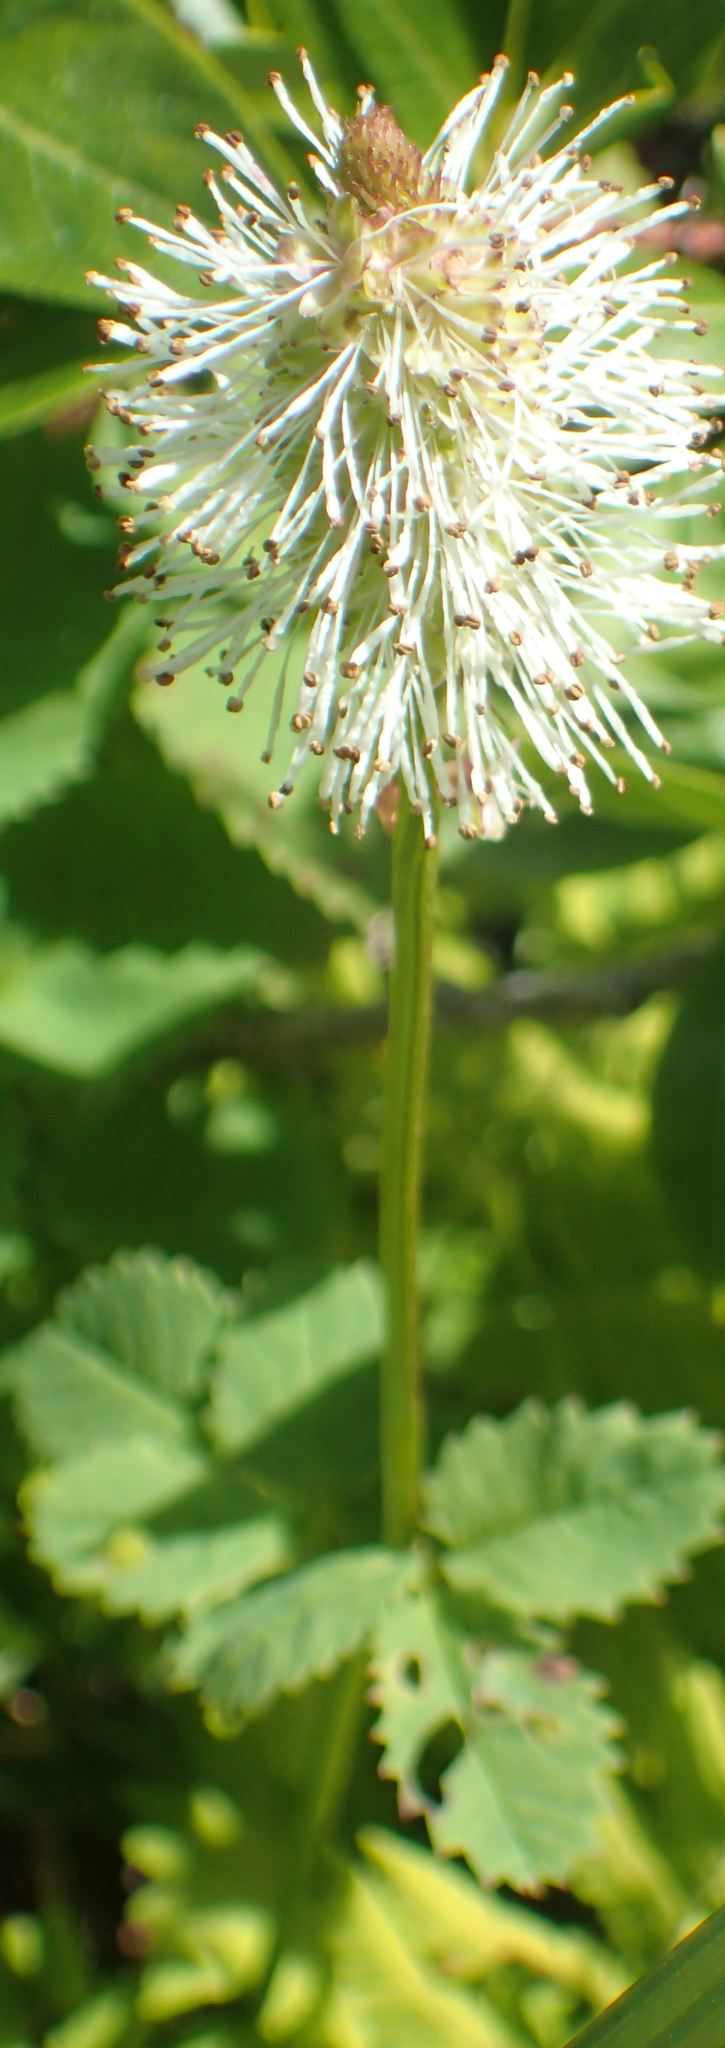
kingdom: Plantae
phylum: Tracheophyta
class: Magnoliopsida
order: Rosales
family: Rosaceae
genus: Sanguisorba
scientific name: Sanguisorba stipulata
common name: Sitka burnet
